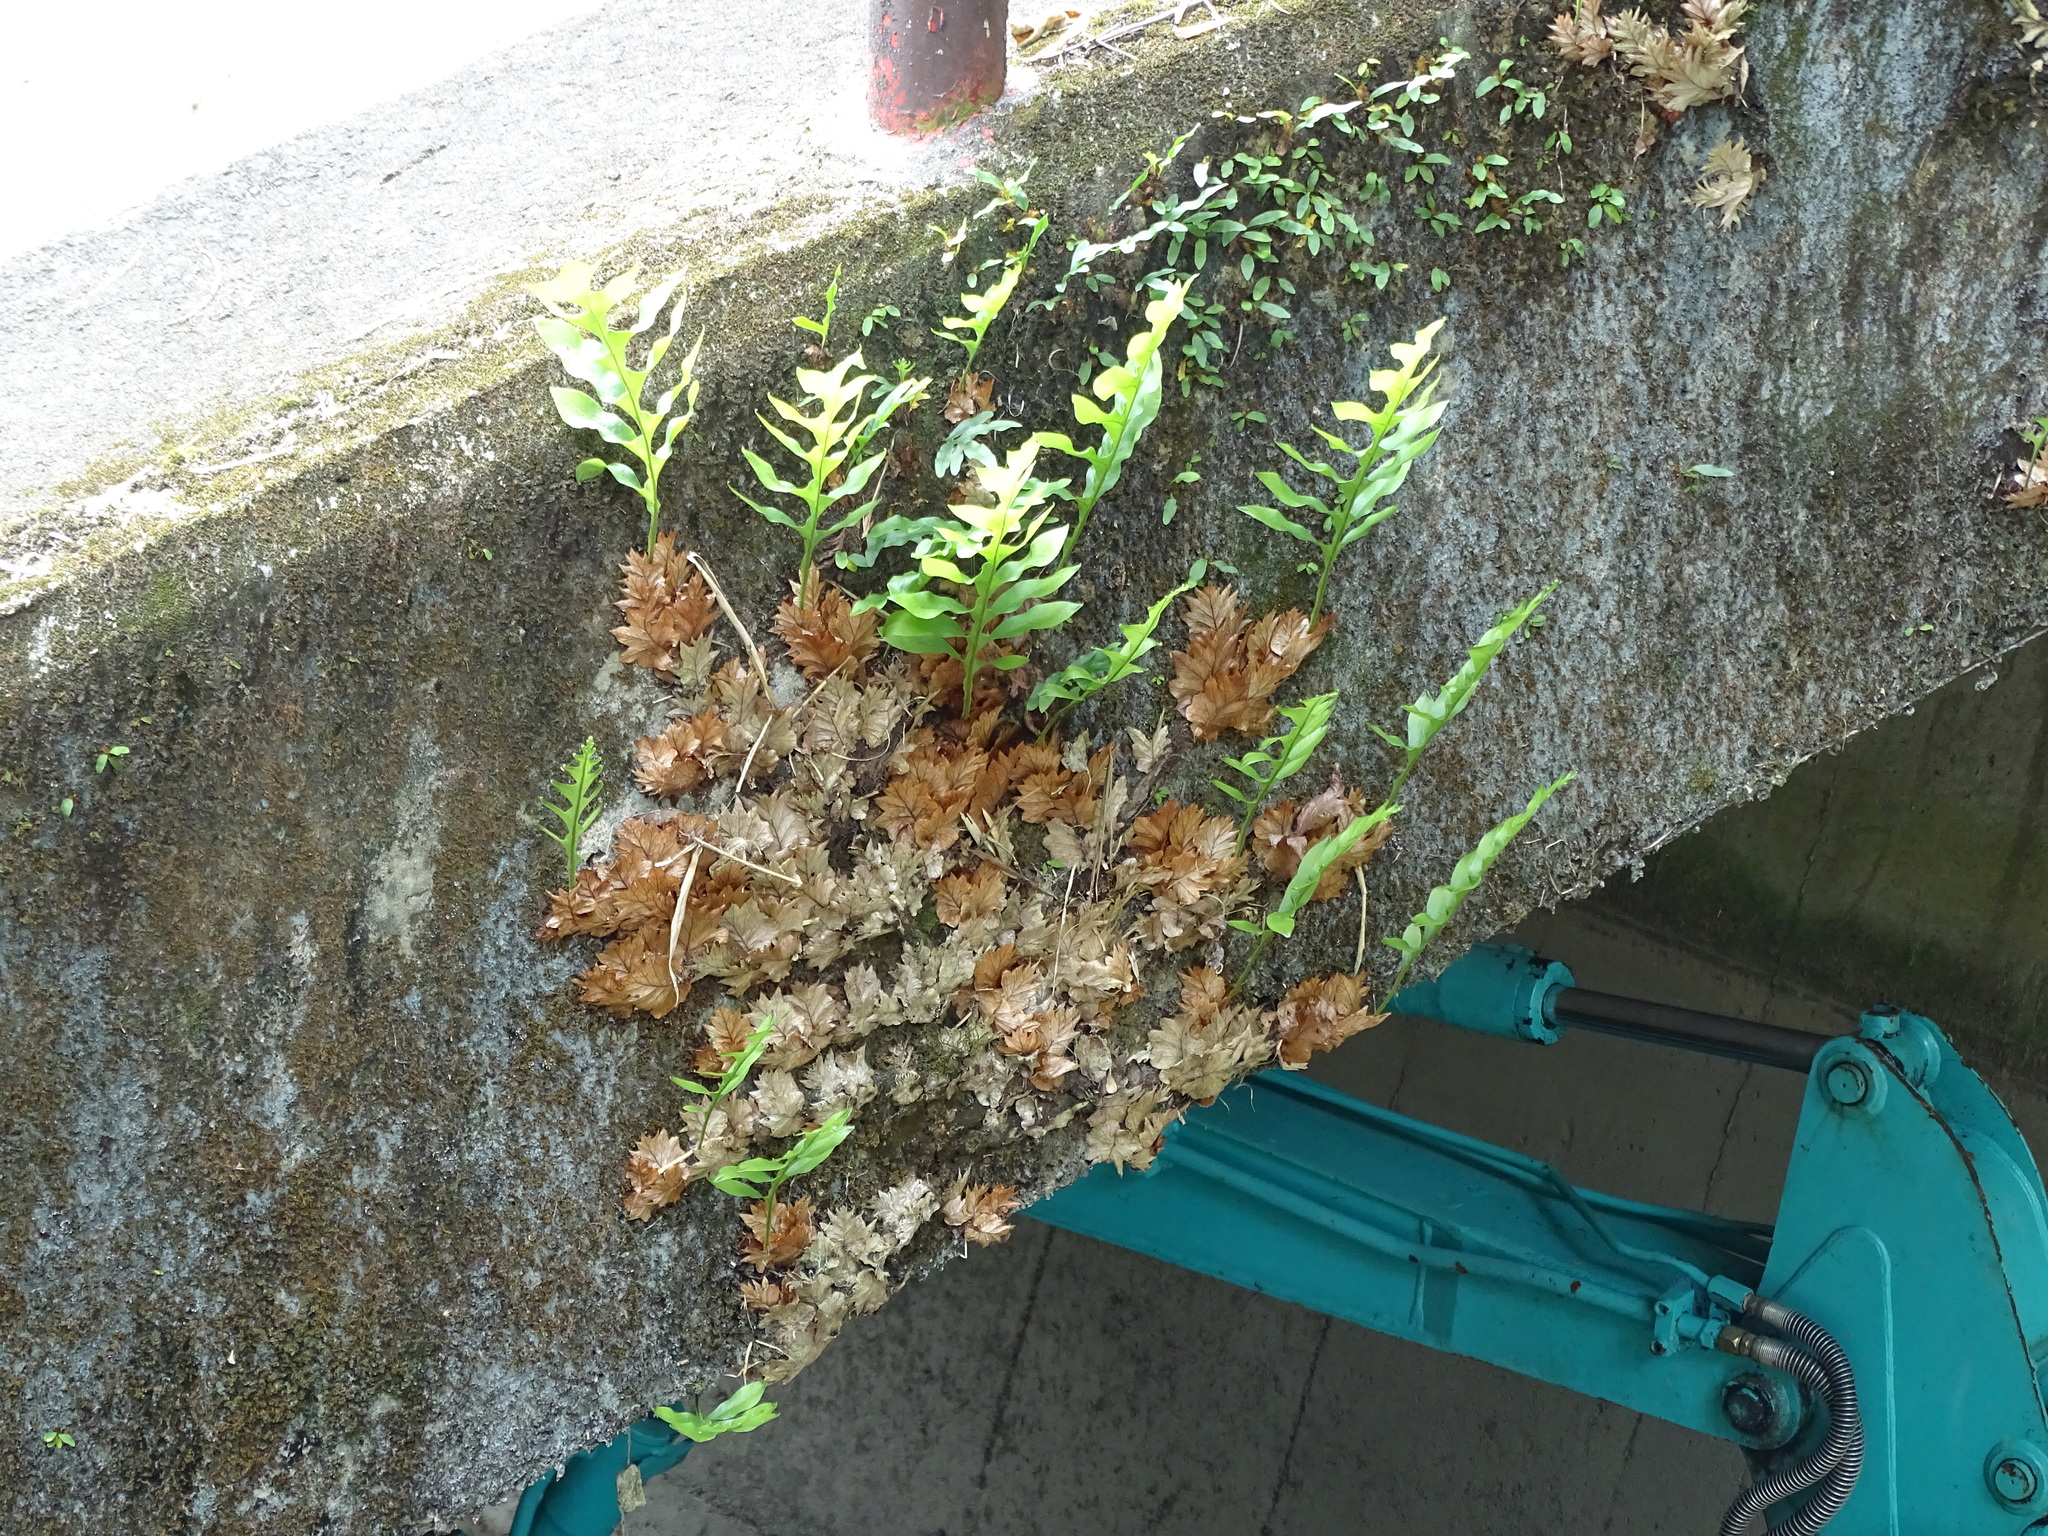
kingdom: Plantae
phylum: Tracheophyta
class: Polypodiopsida
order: Polypodiales
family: Polypodiaceae
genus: Drynaria
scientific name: Drynaria roosii
